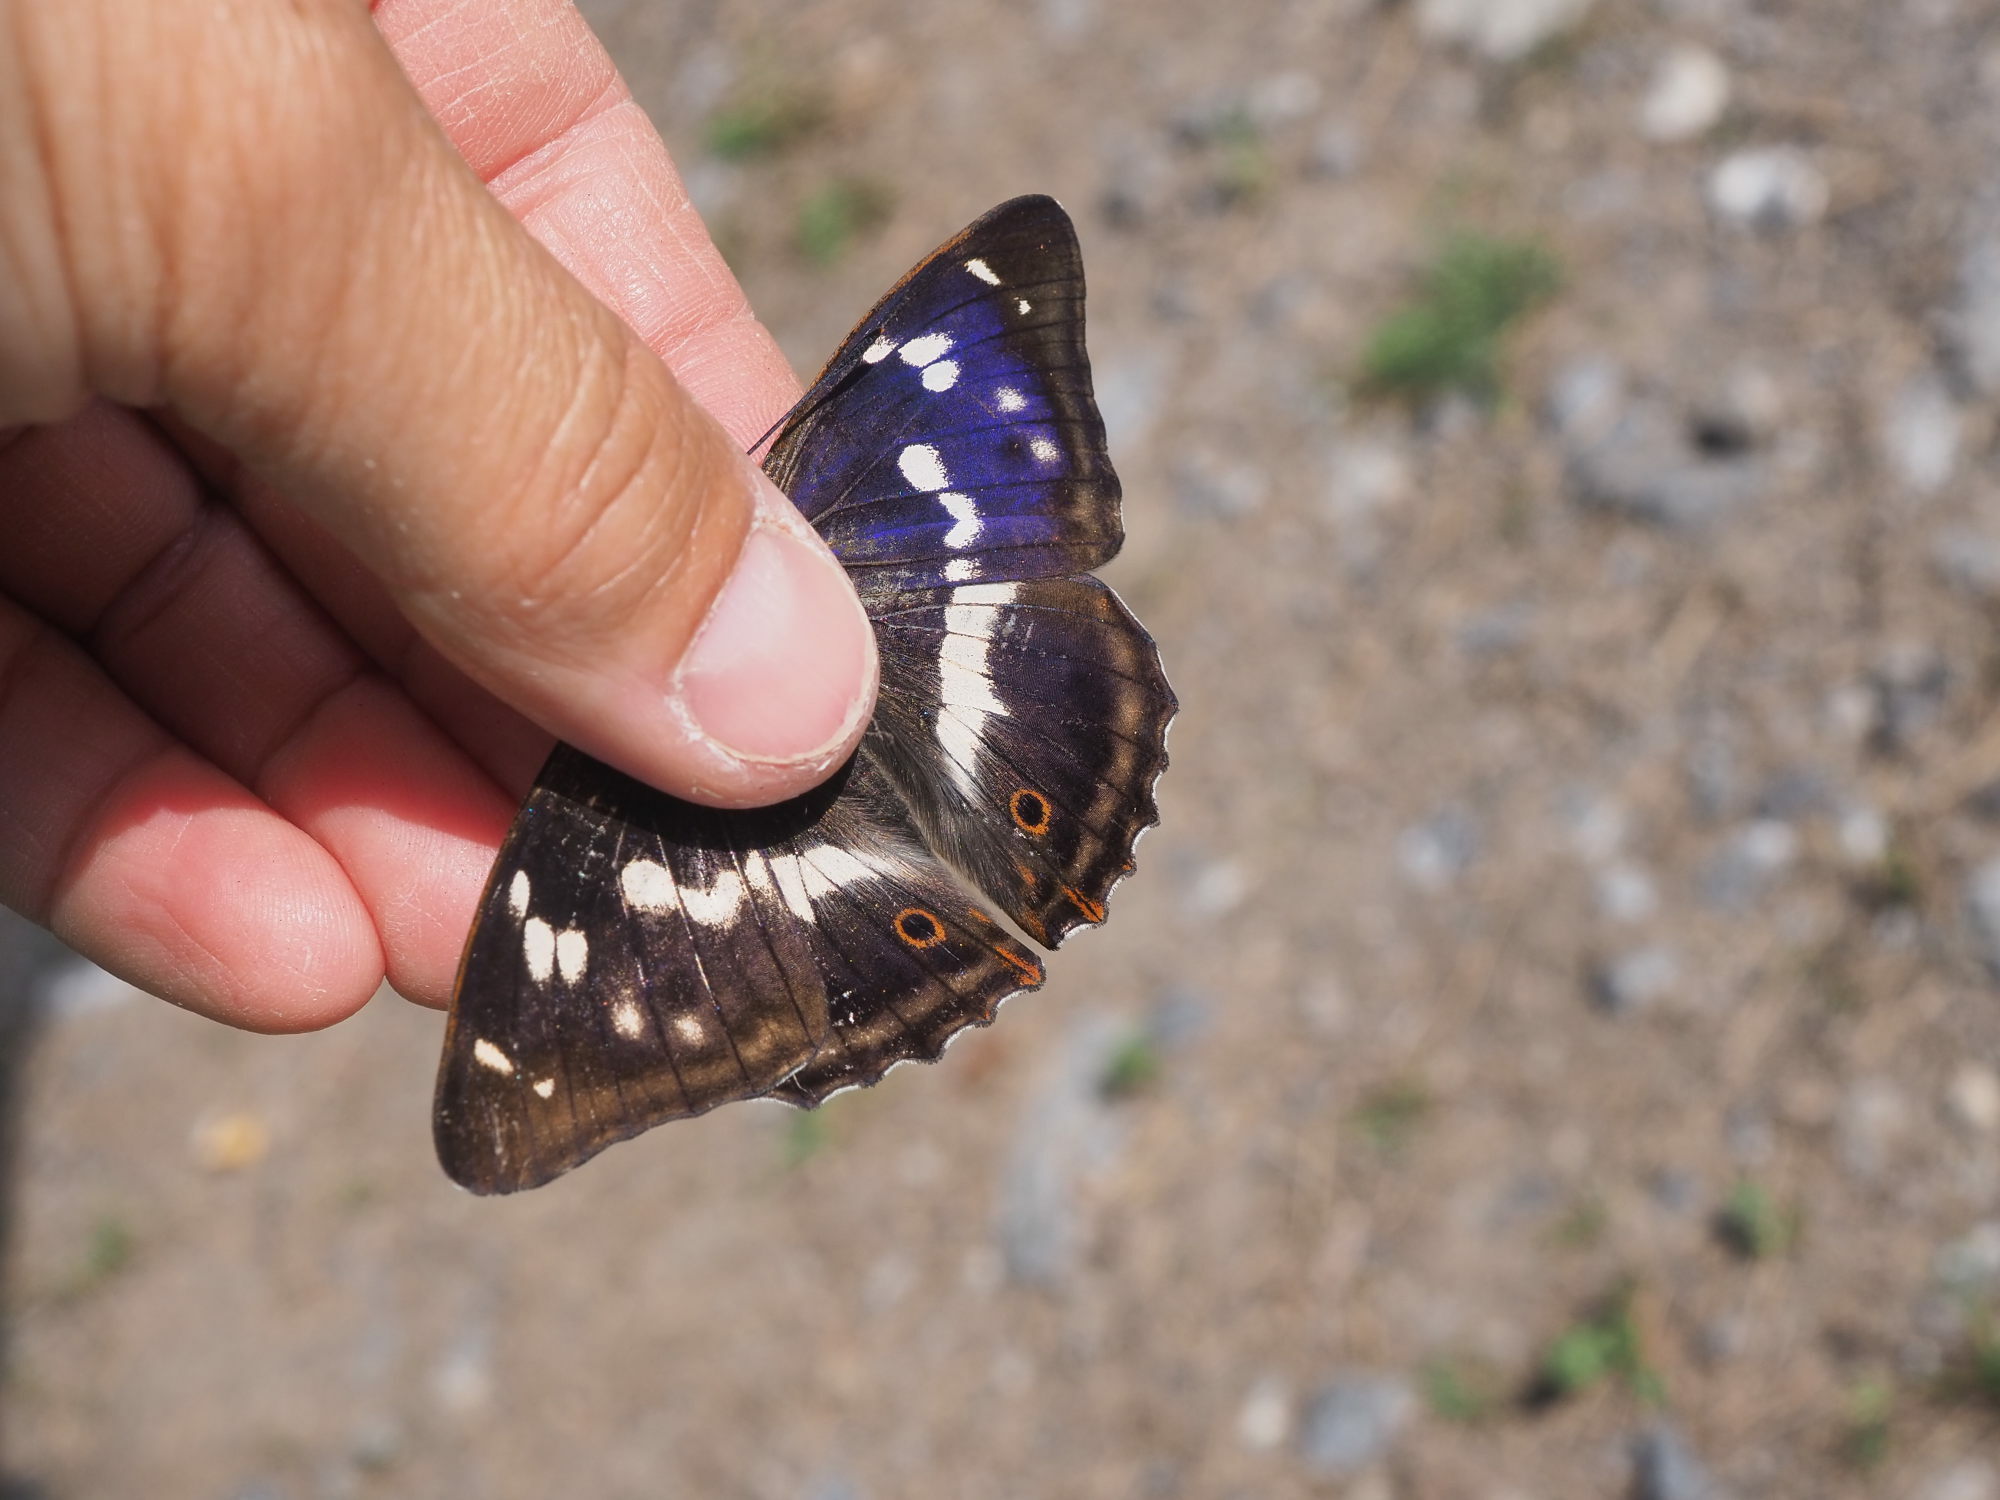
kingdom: Animalia
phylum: Arthropoda
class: Insecta
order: Lepidoptera
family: Nymphalidae
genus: Apatura
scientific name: Apatura iris
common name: Purple emperor
